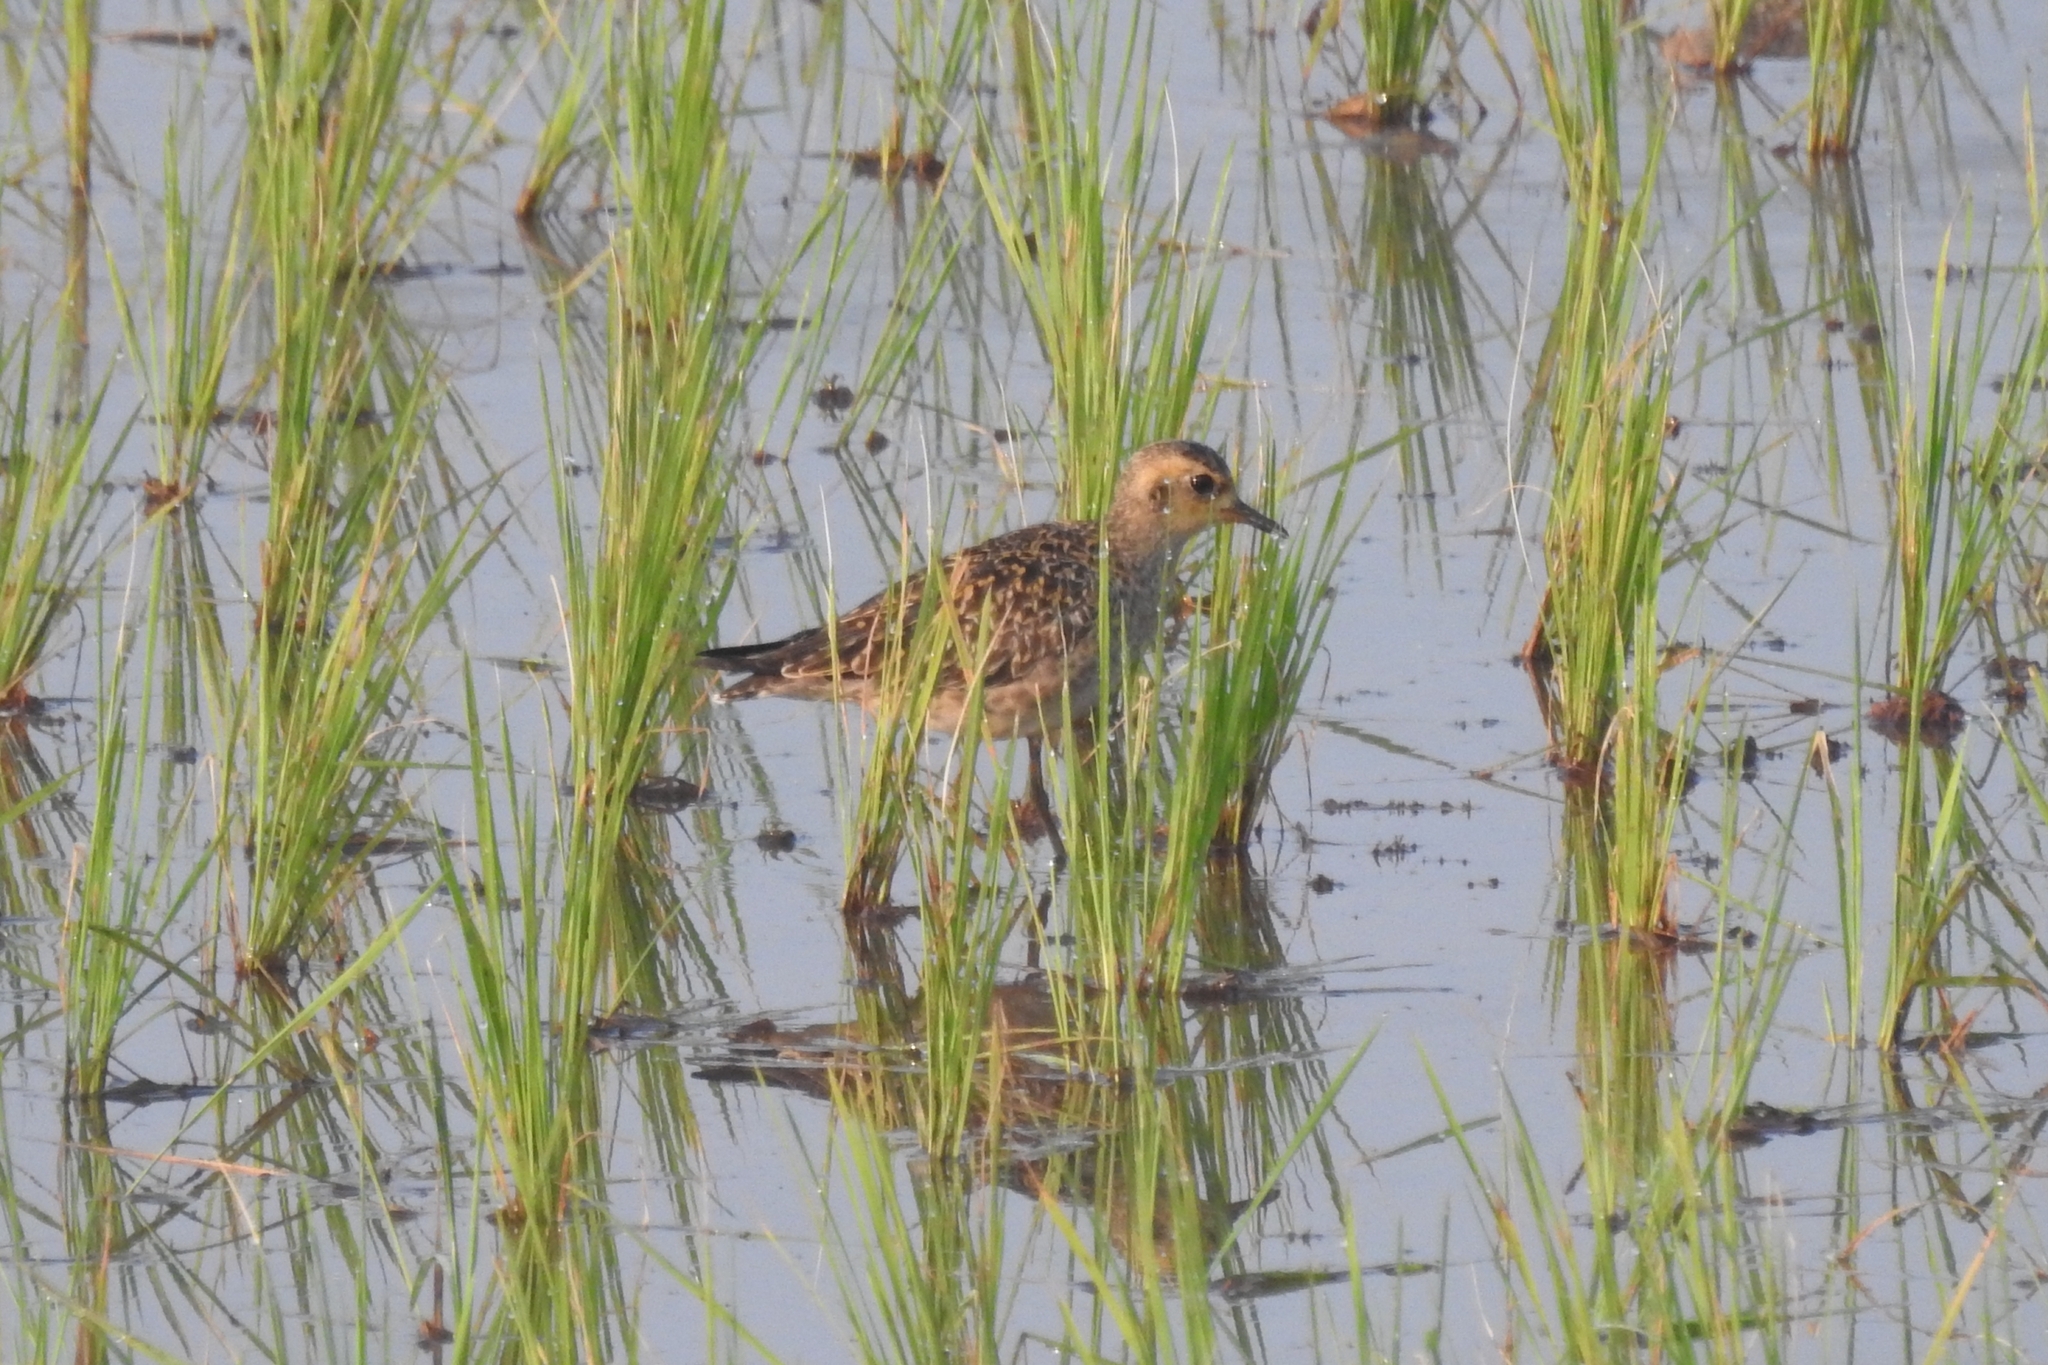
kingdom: Animalia
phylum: Chordata
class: Aves
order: Charadriiformes
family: Charadriidae
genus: Pluvialis
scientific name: Pluvialis fulva
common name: Pacific golden plover
